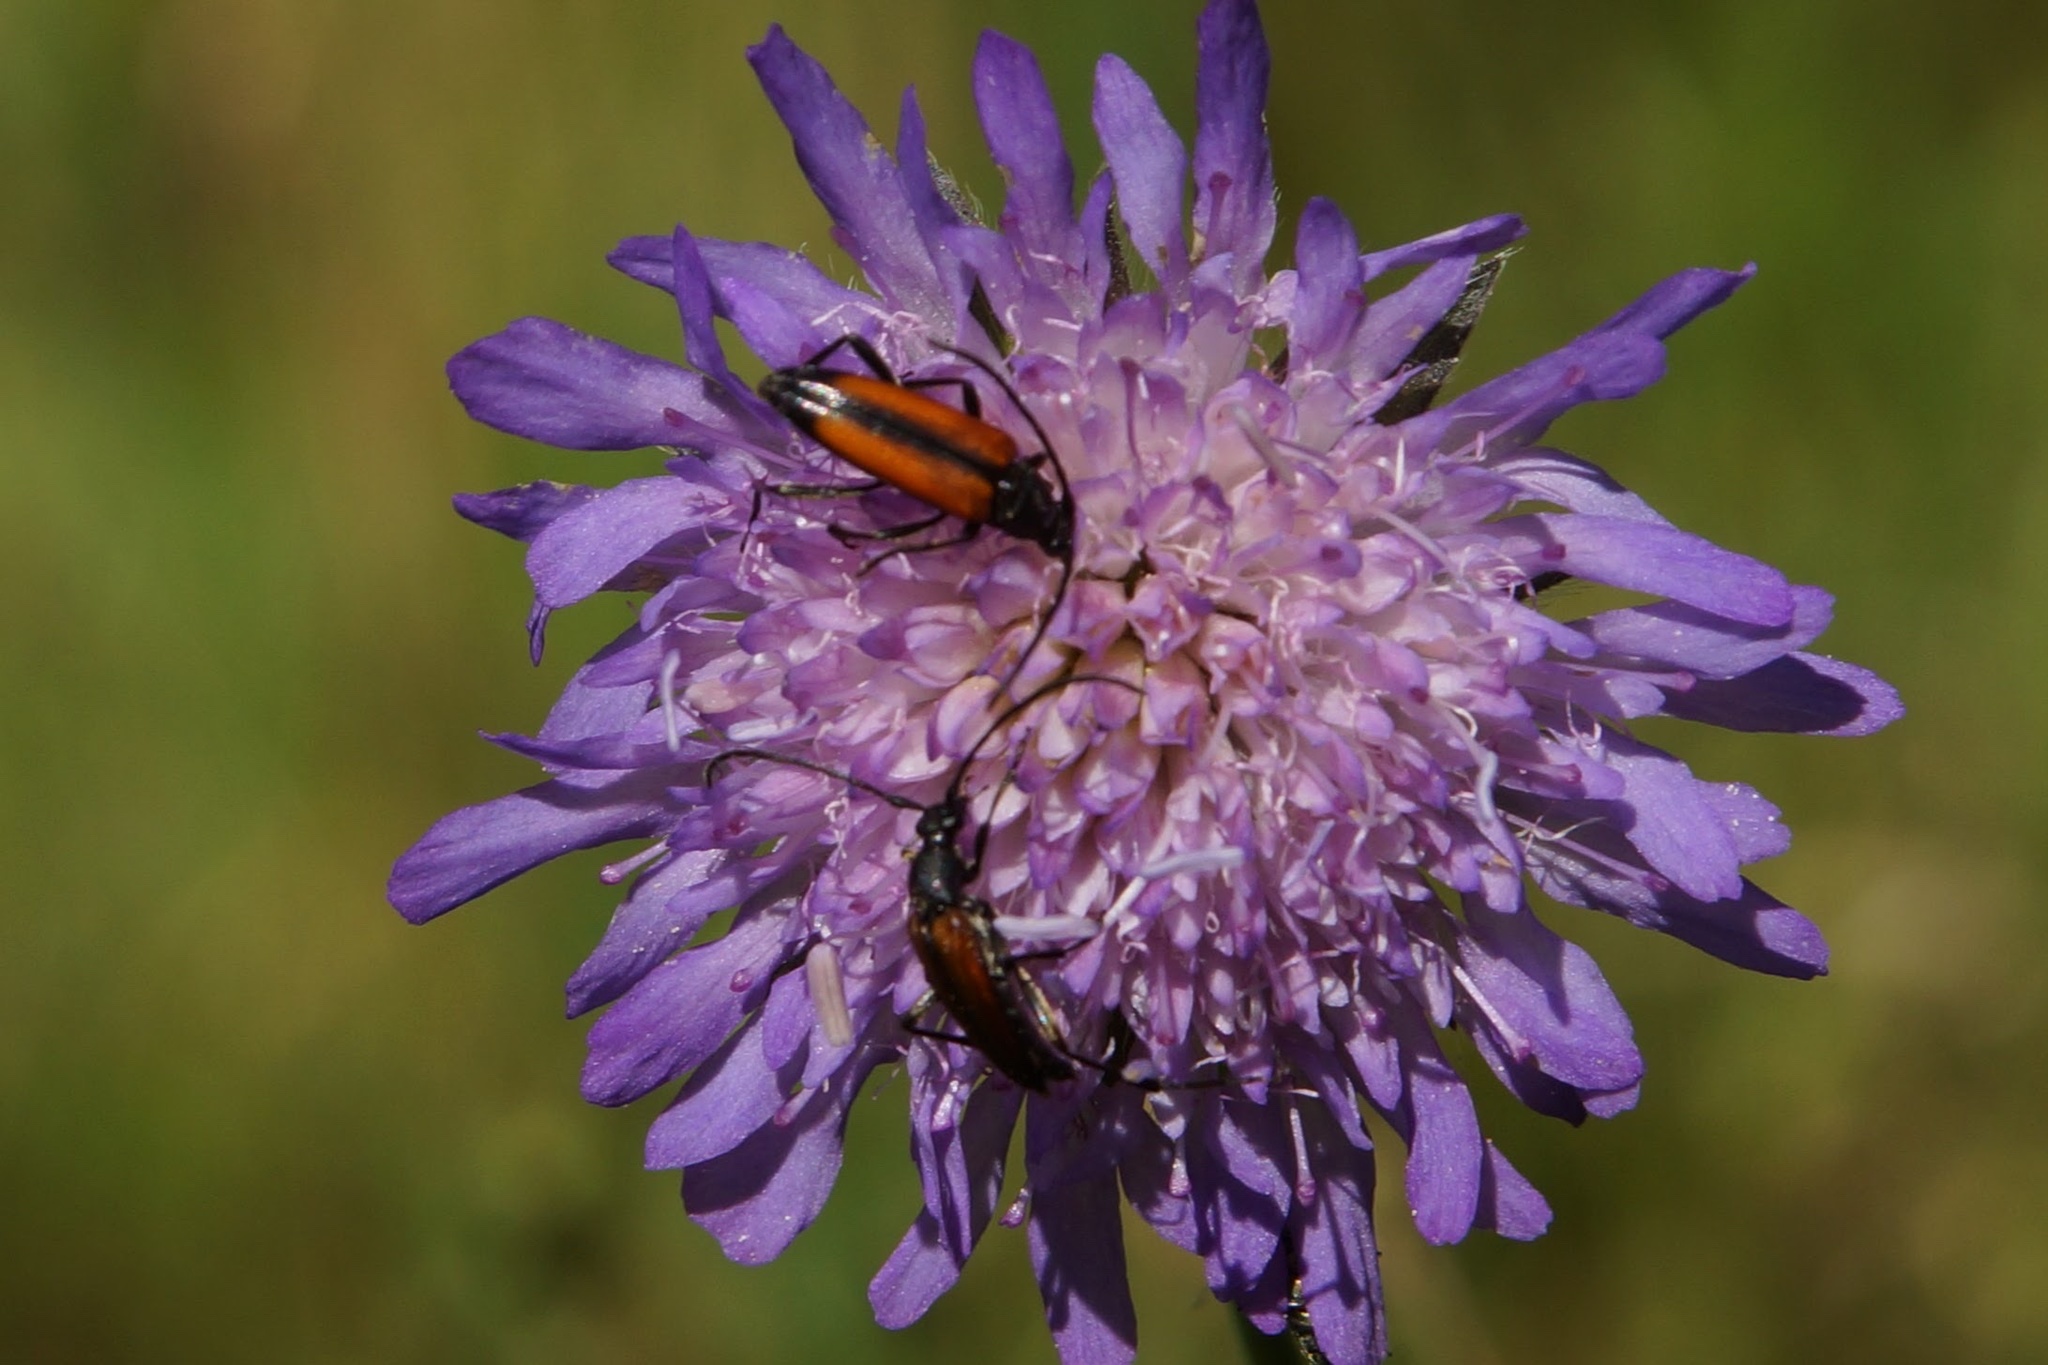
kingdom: Animalia
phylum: Arthropoda
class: Insecta
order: Coleoptera
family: Cerambycidae
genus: Stenurella
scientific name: Stenurella melanura
